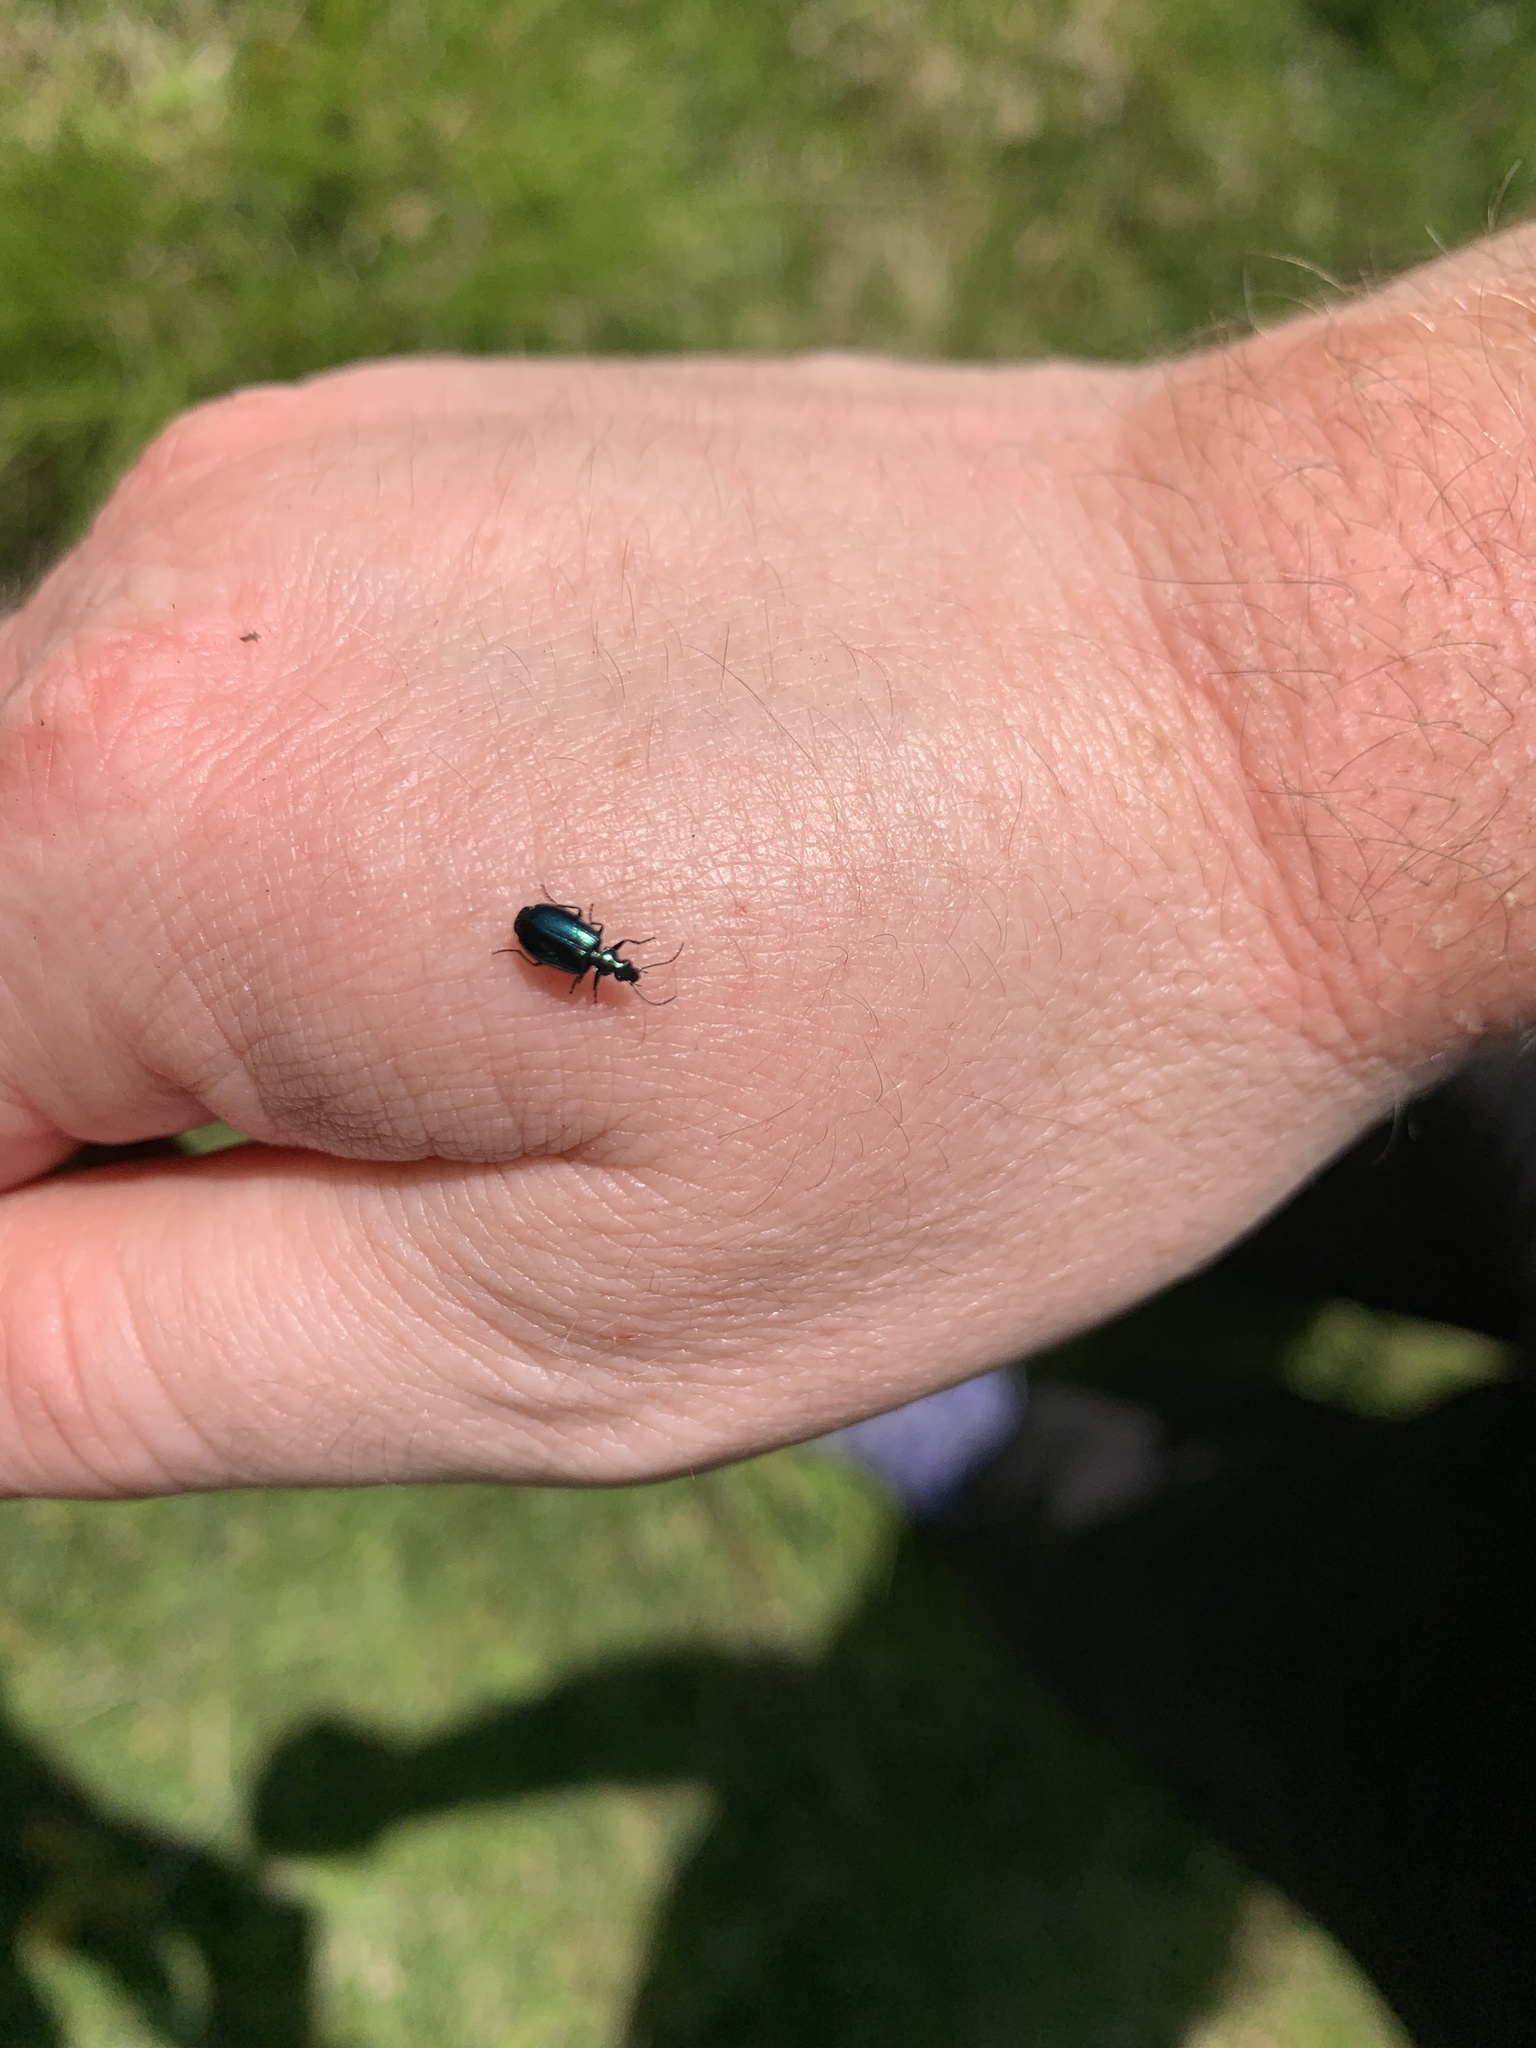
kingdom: Animalia
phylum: Arthropoda
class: Insecta
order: Coleoptera
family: Carabidae
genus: Lebia
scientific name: Lebia viridis
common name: Flower lebia beetle
